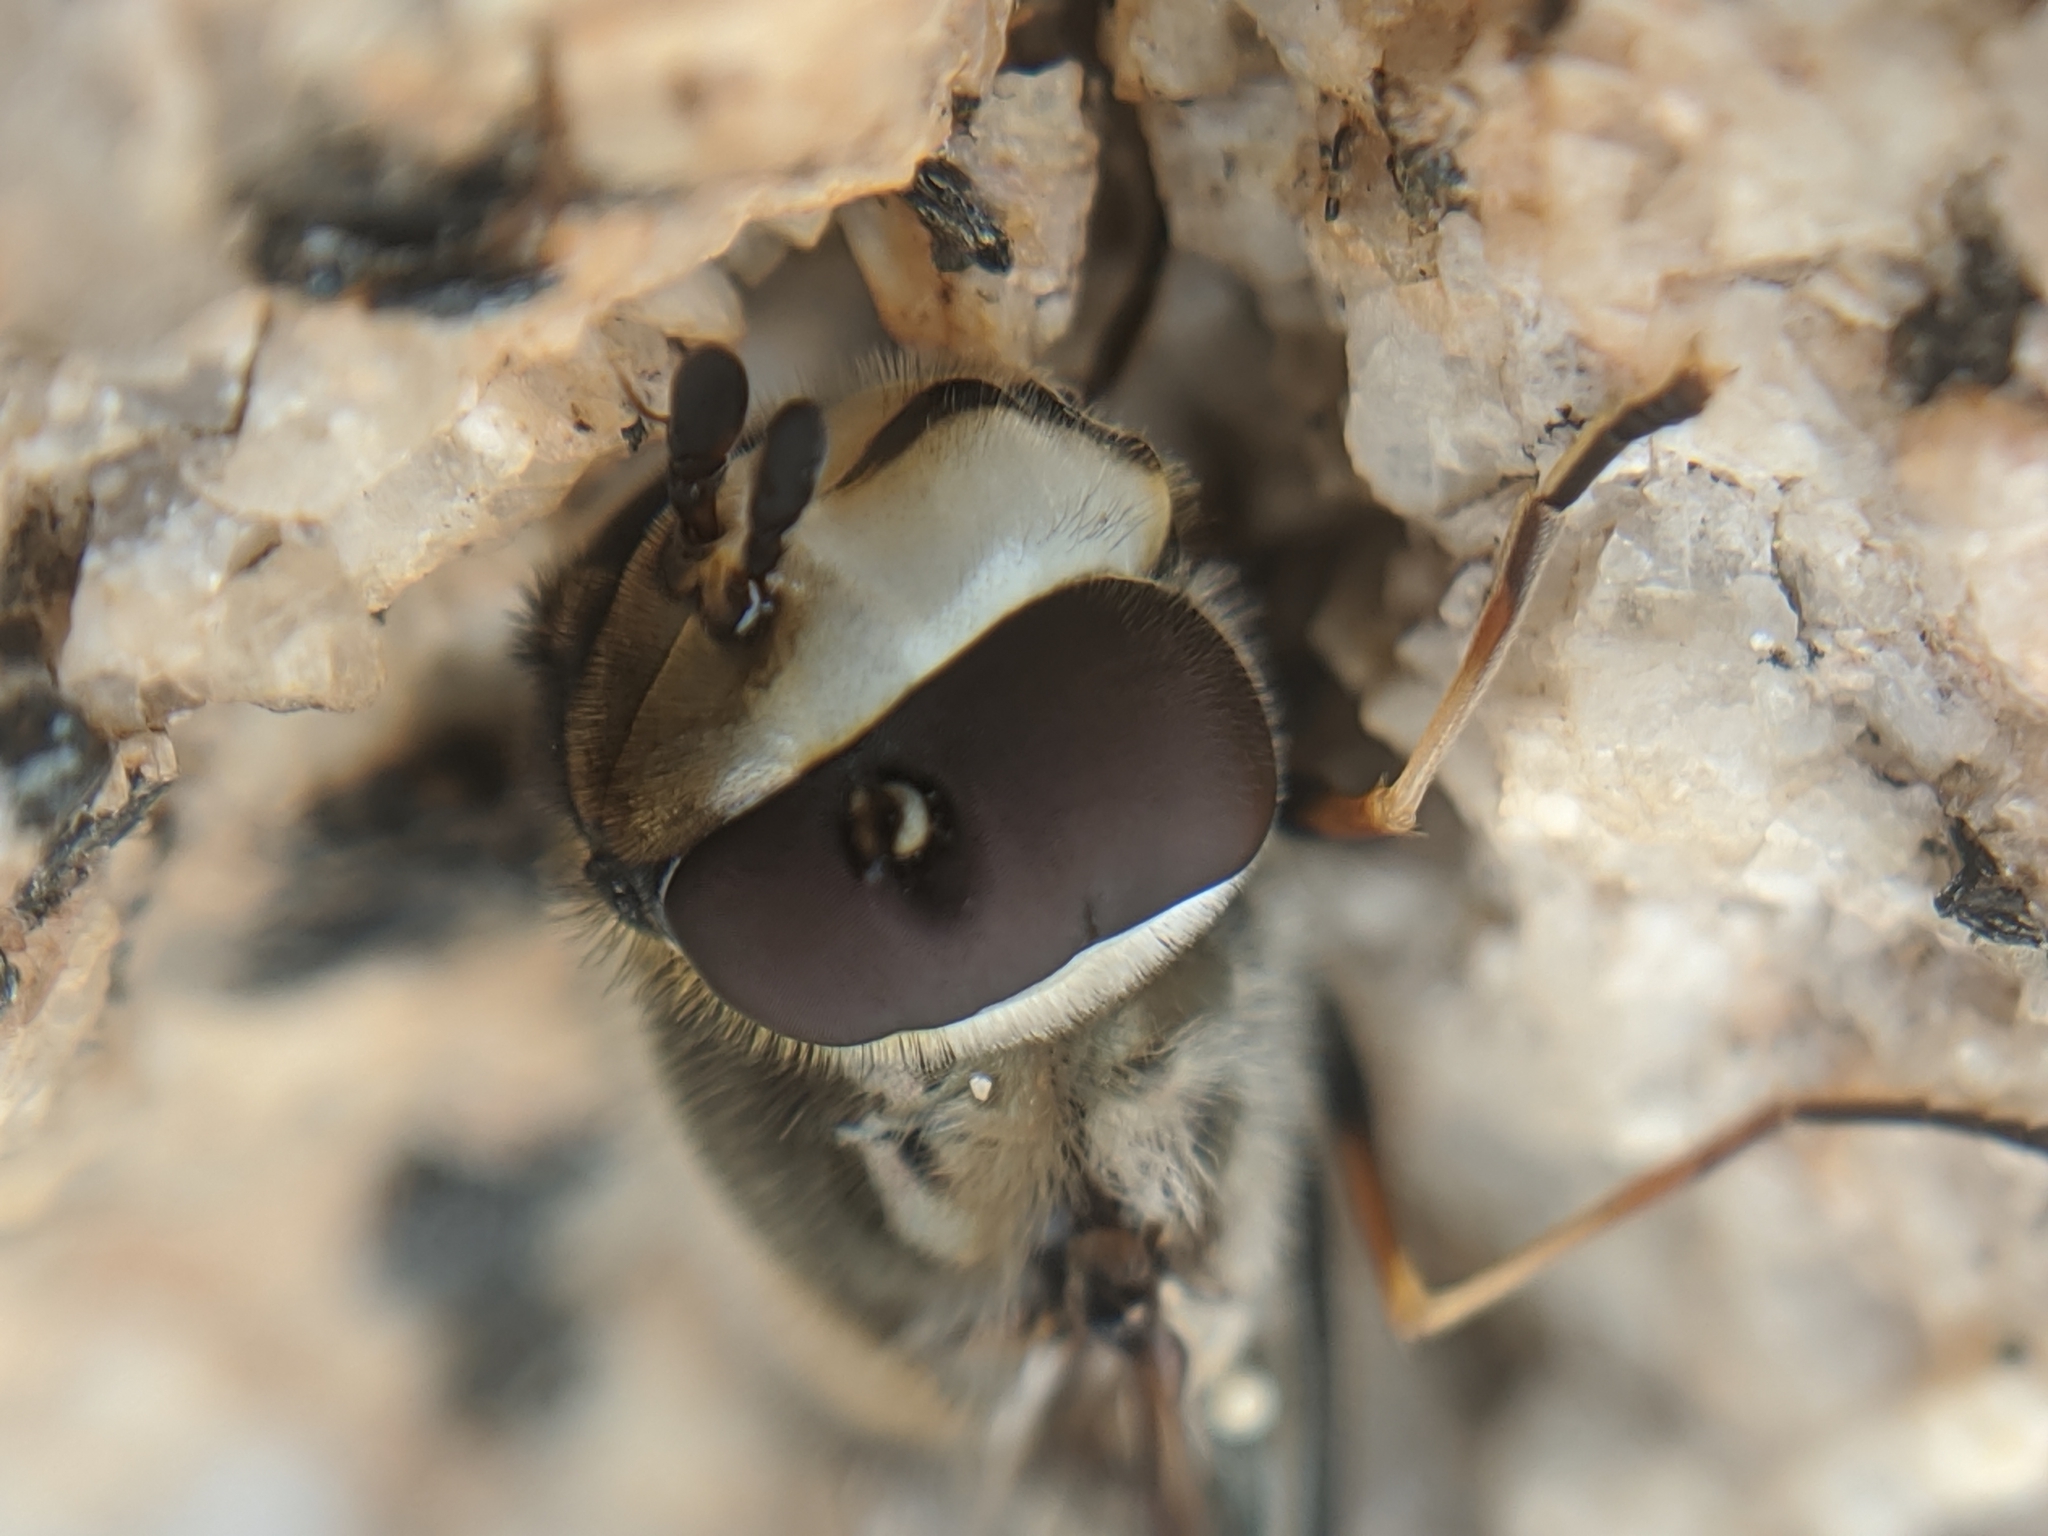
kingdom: Animalia
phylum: Arthropoda
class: Insecta
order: Diptera
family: Syrphidae
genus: Scaeva
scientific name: Scaeva affinis
